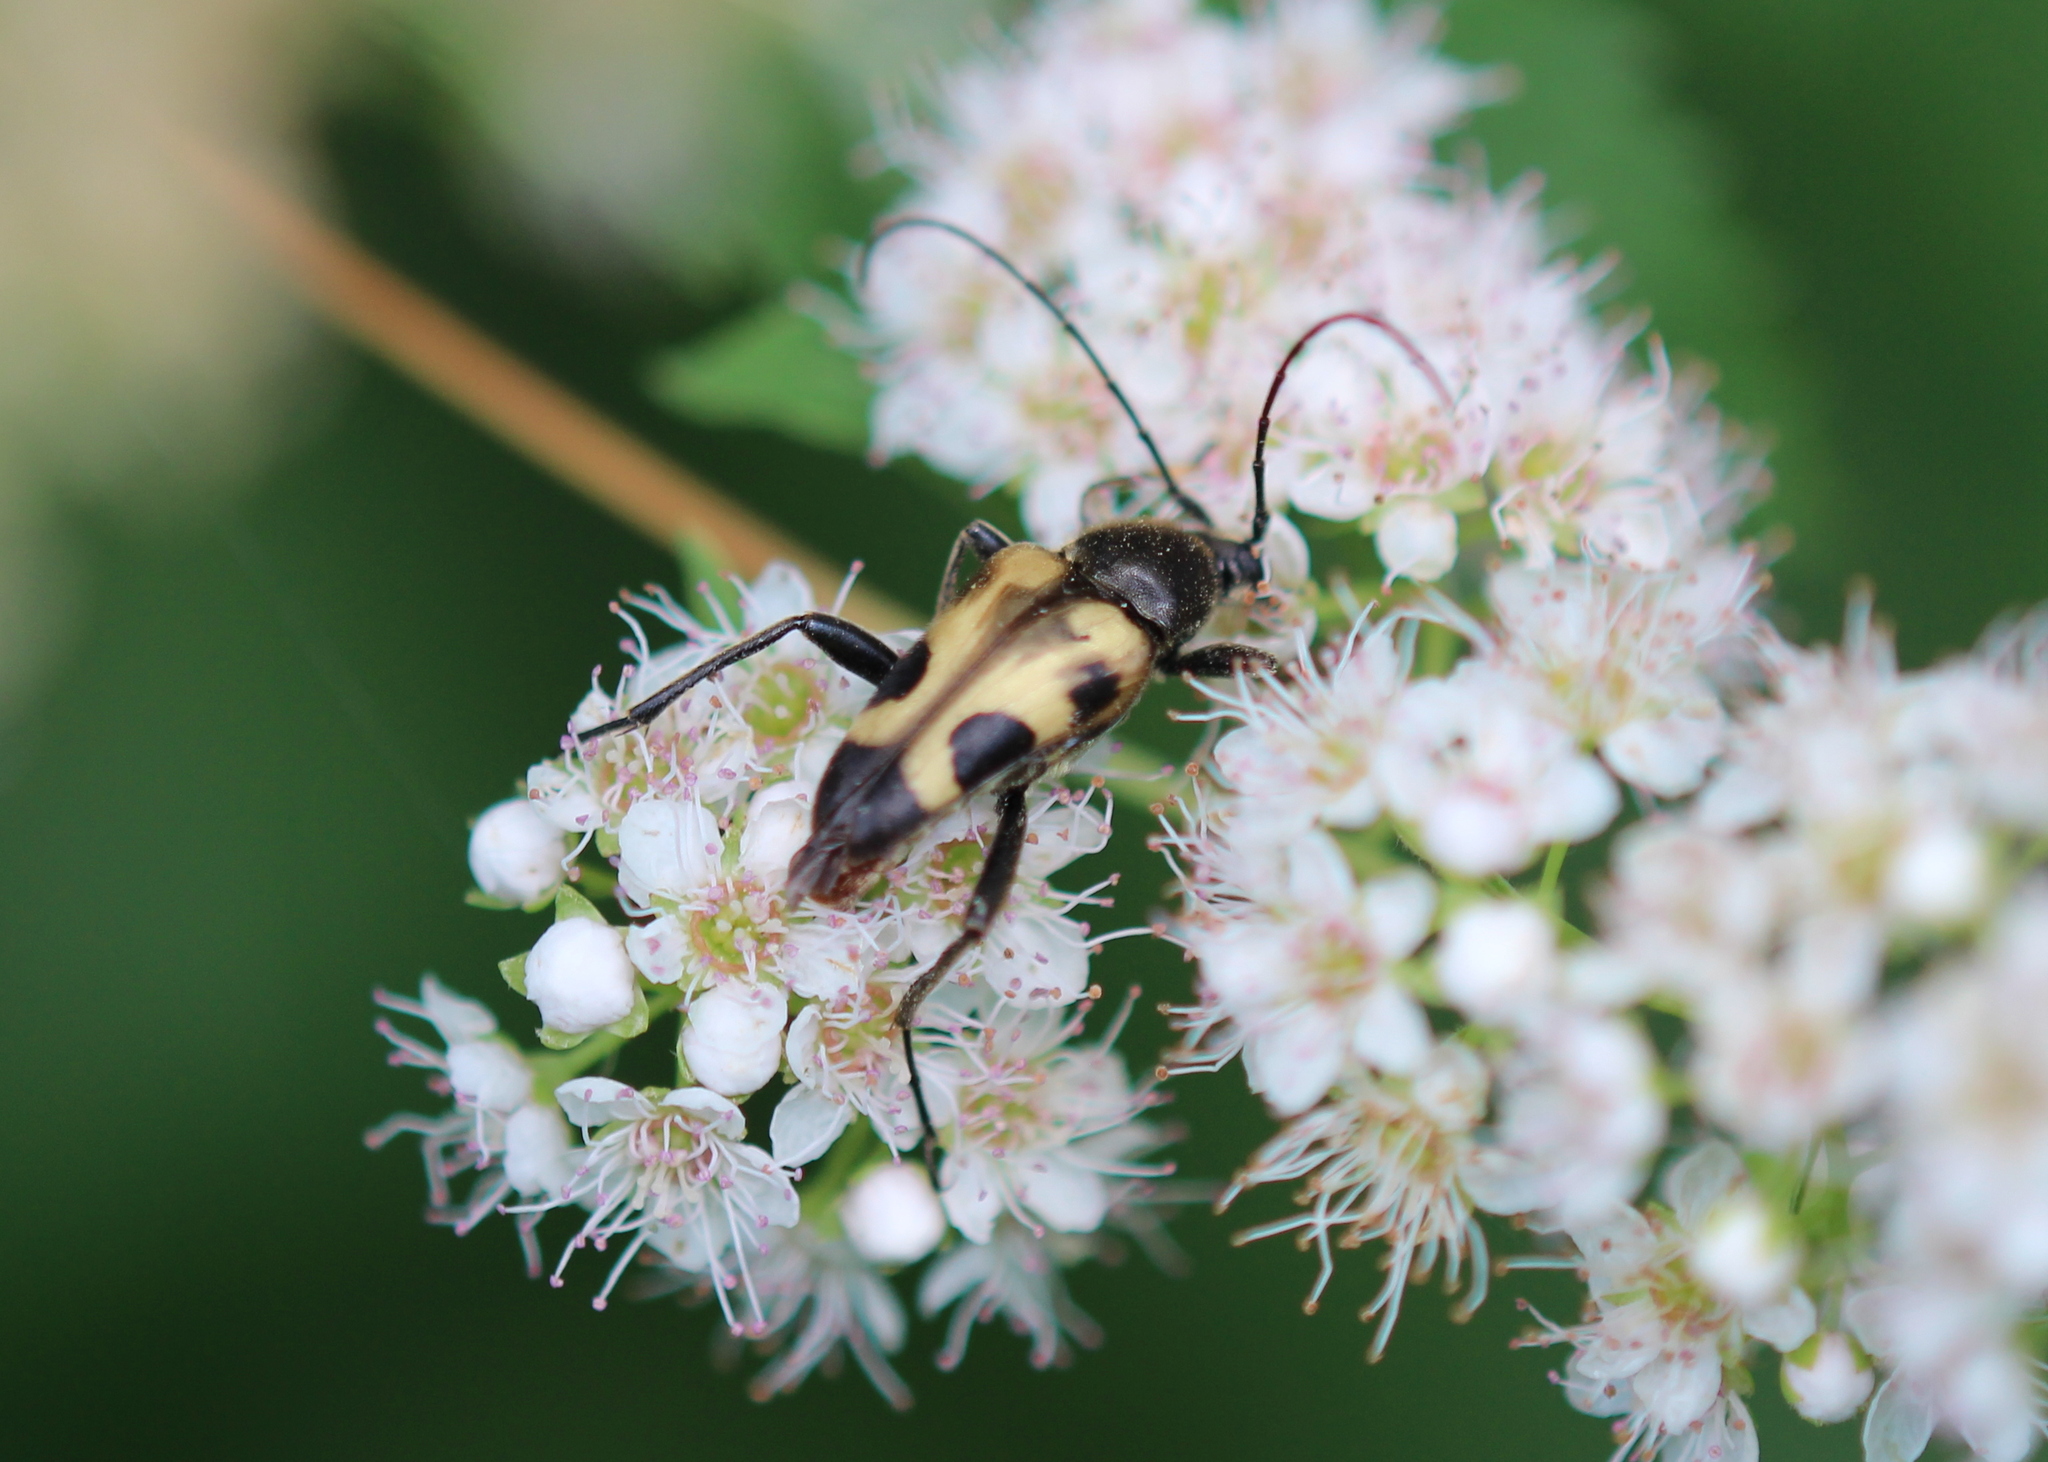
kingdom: Animalia
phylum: Arthropoda
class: Insecta
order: Coleoptera
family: Cerambycidae
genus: Judolia
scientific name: Judolia cordifera
